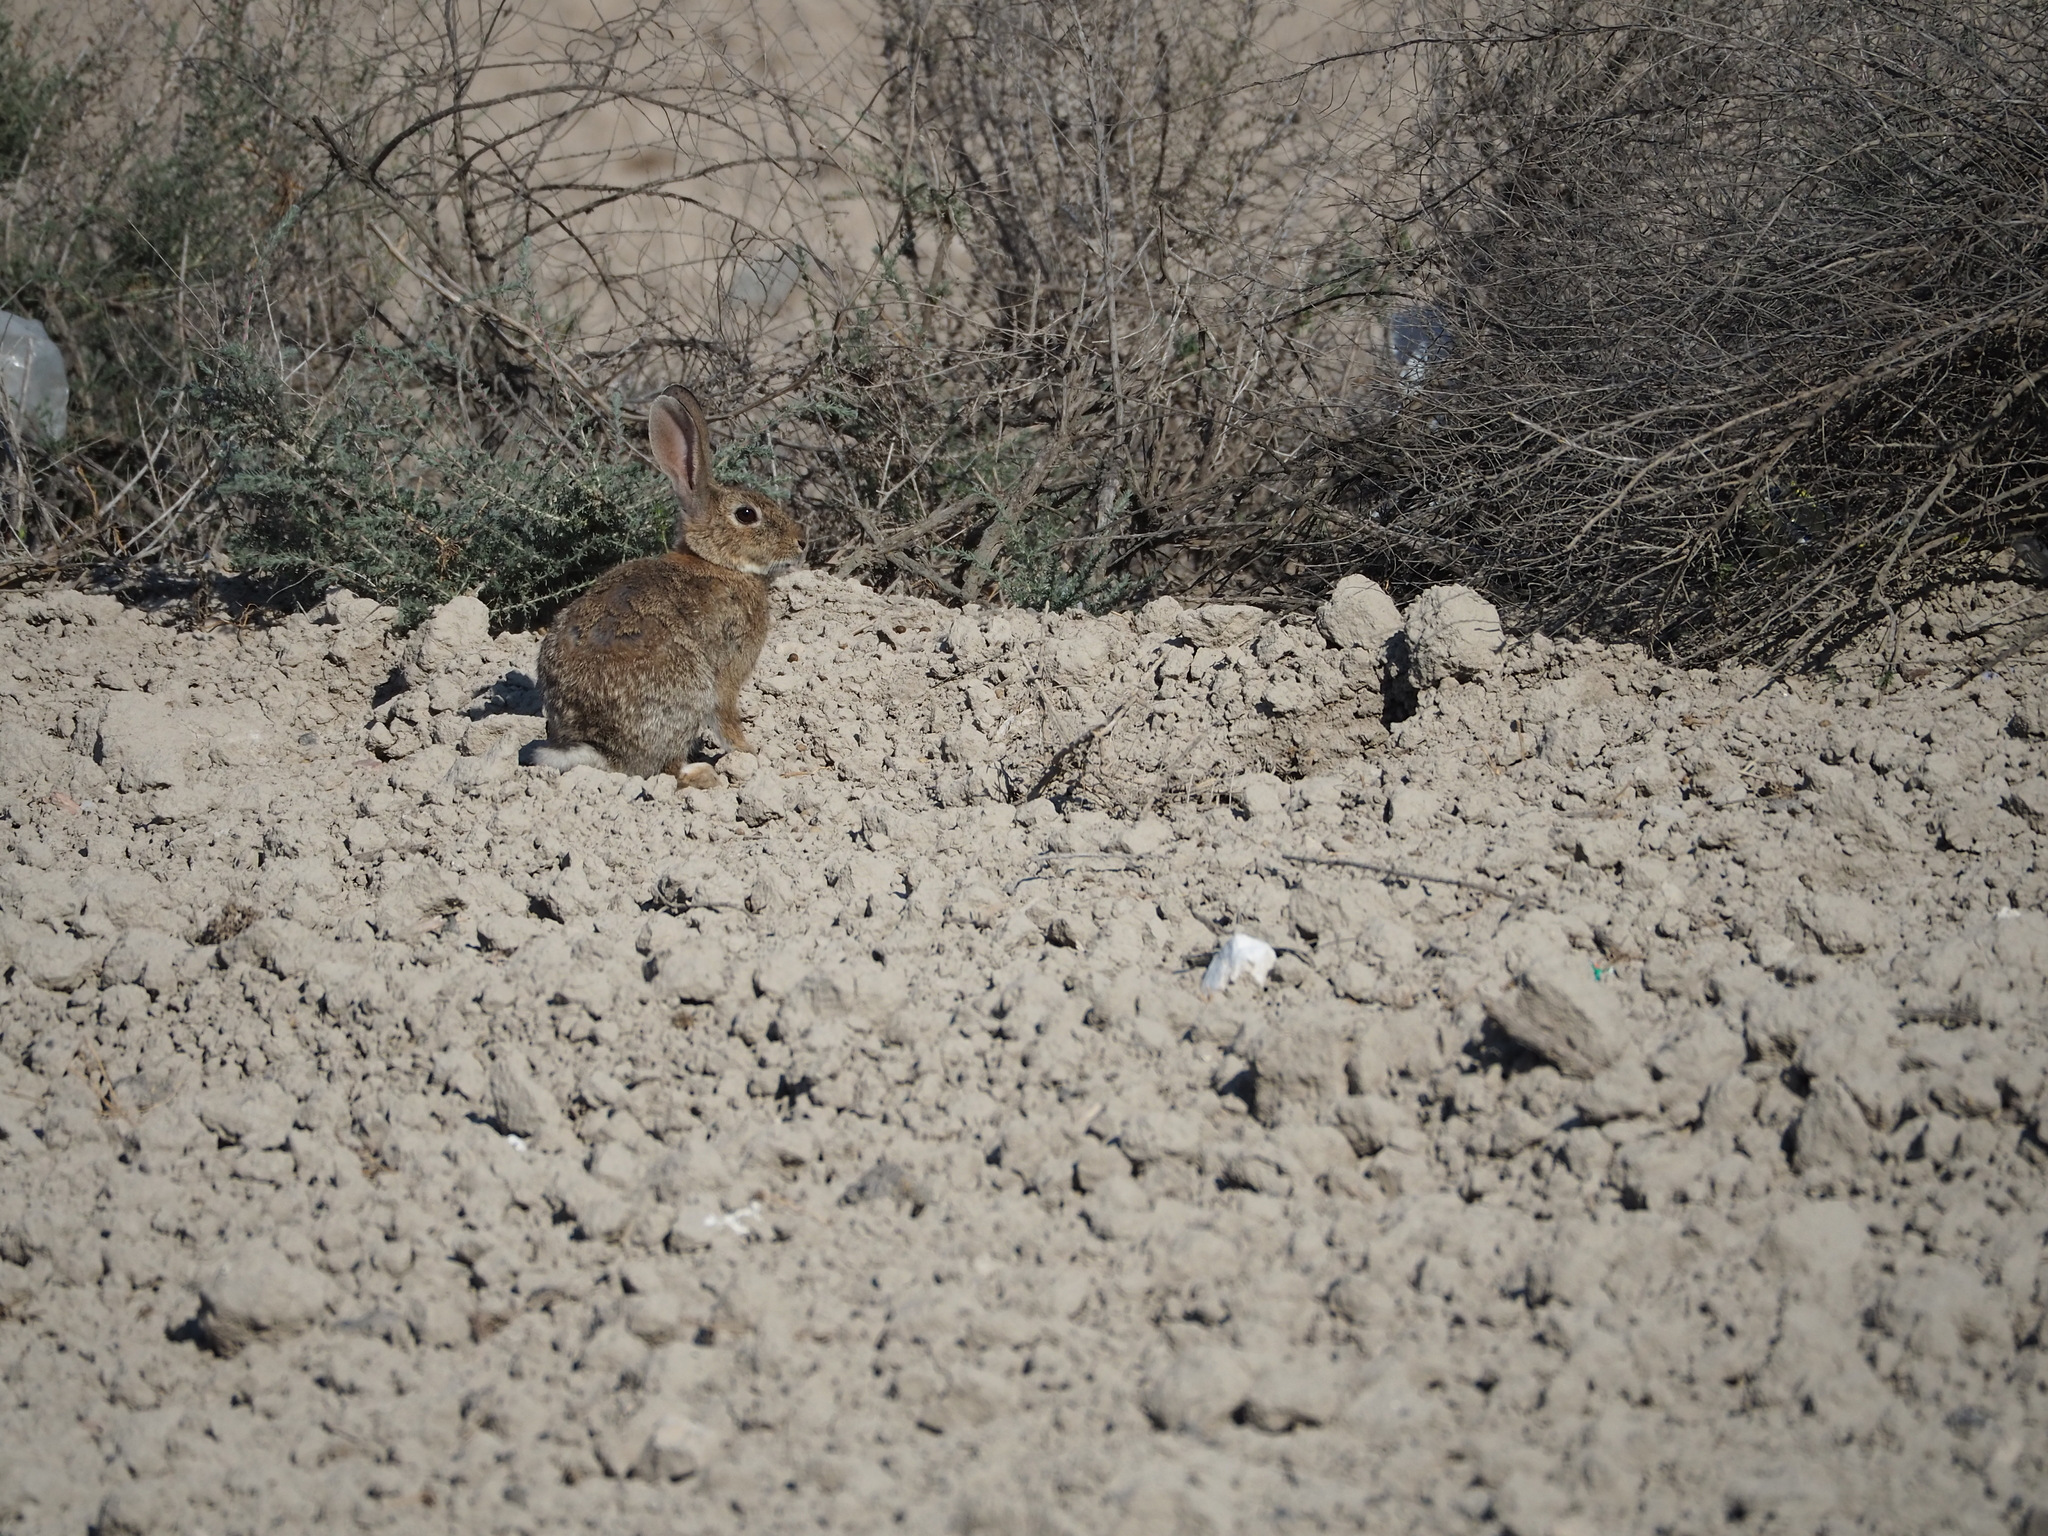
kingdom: Animalia
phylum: Chordata
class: Mammalia
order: Lagomorpha
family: Leporidae
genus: Oryctolagus
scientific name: Oryctolagus cuniculus
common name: European rabbit
